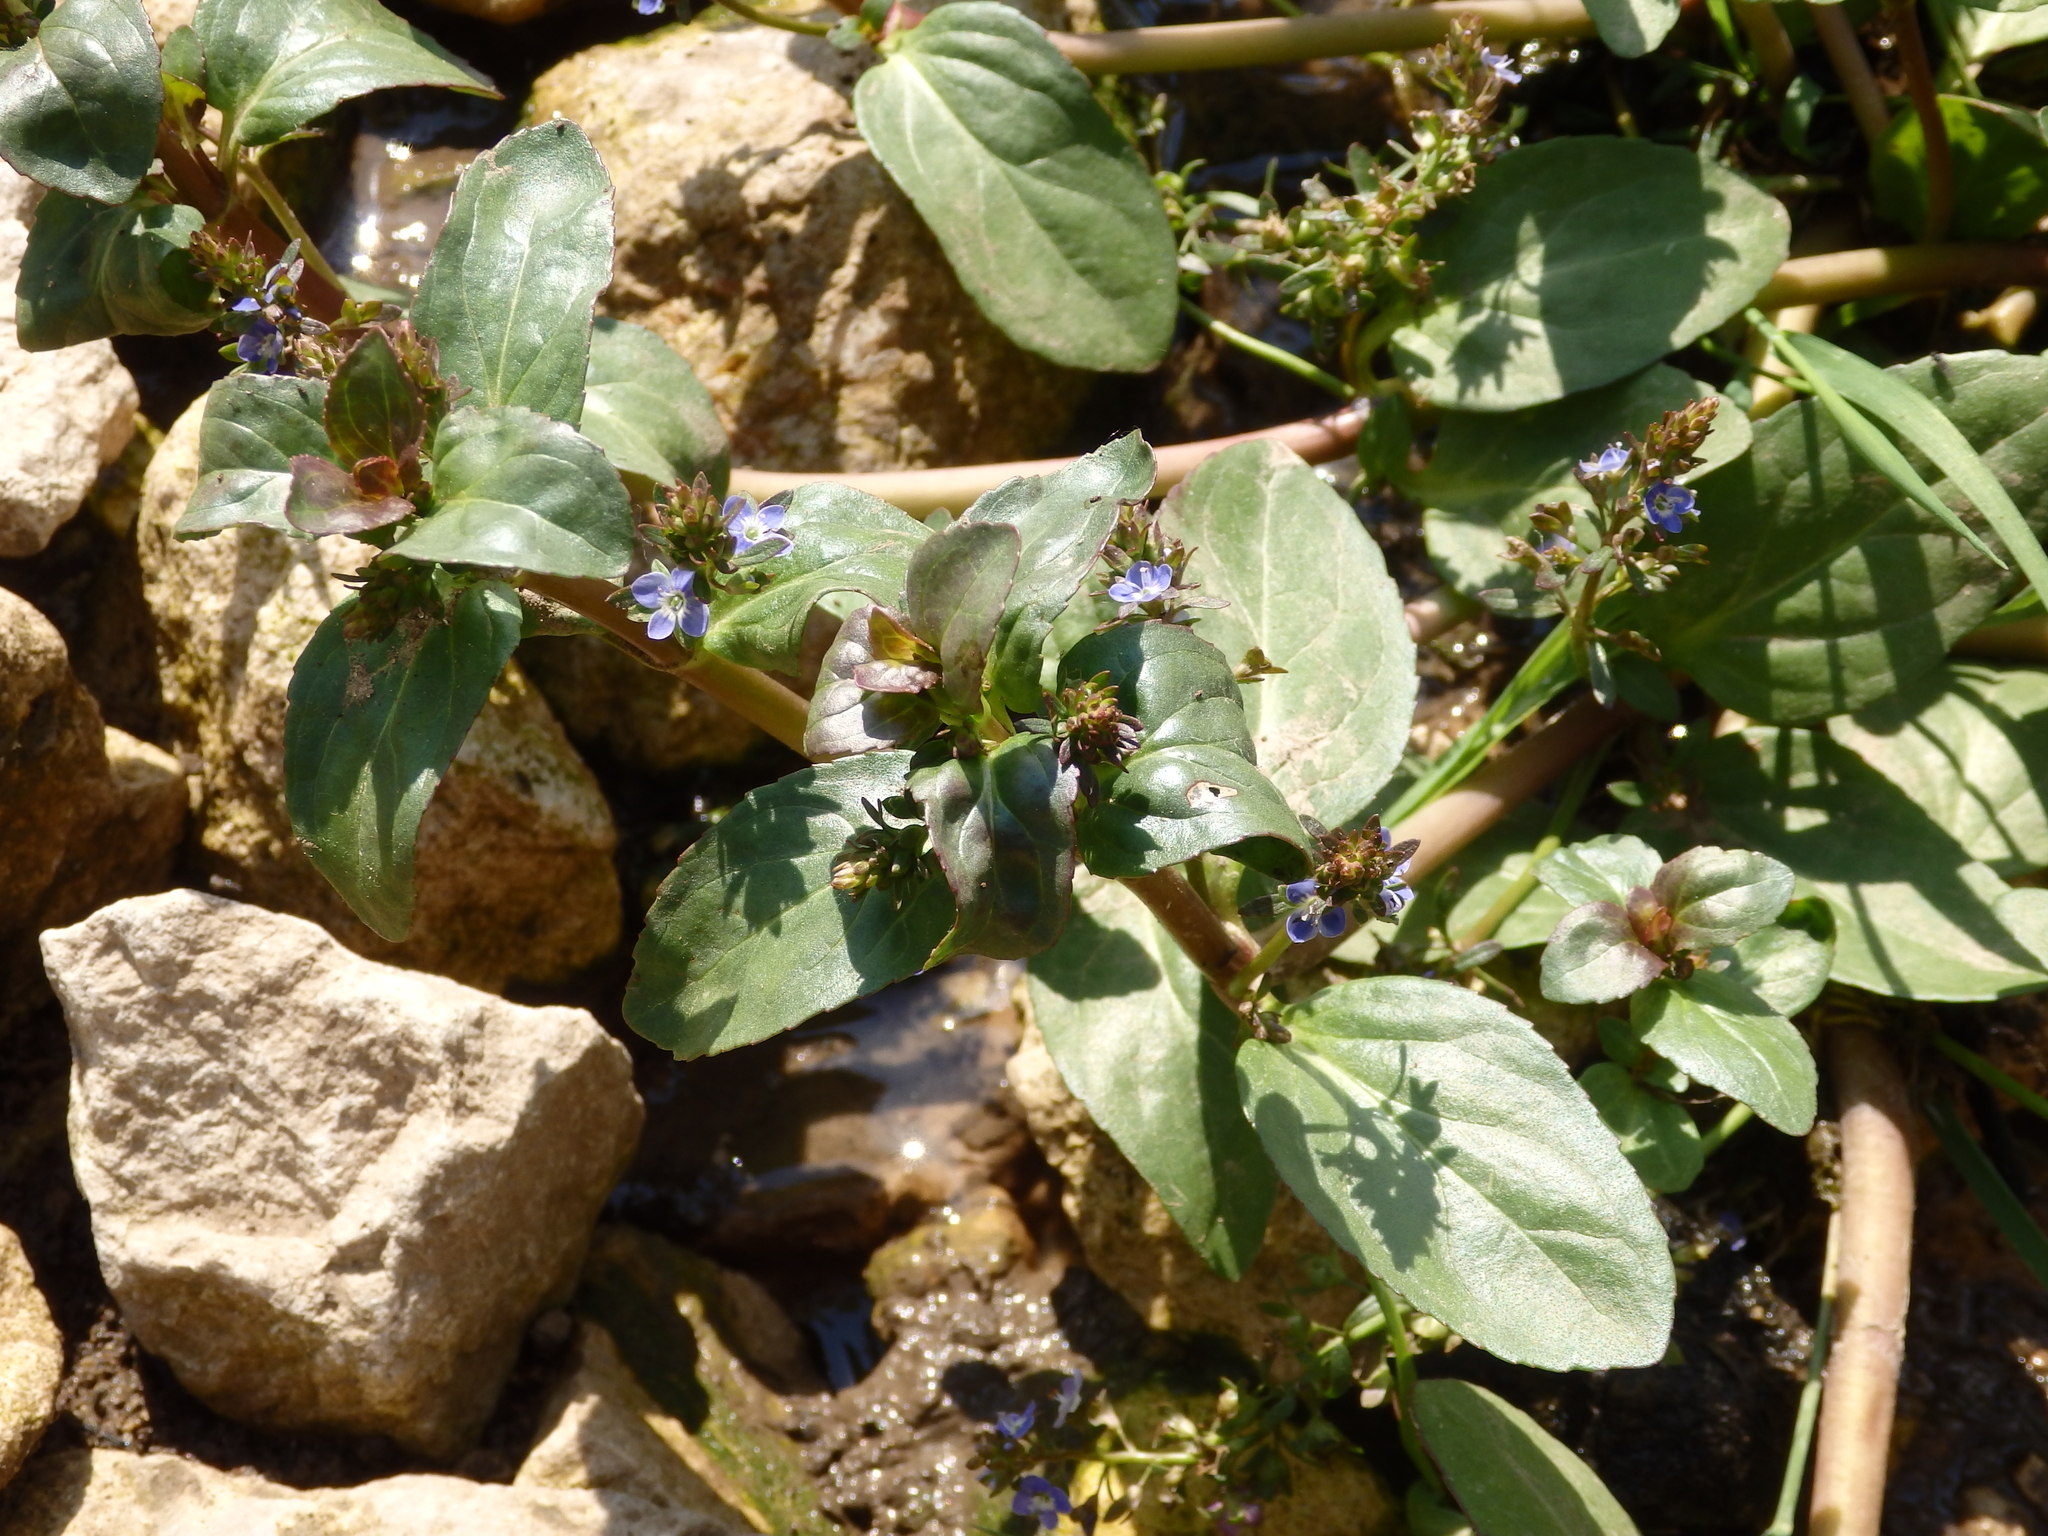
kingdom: Plantae
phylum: Tracheophyta
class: Magnoliopsida
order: Lamiales
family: Plantaginaceae
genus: Veronica
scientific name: Veronica beccabunga
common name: Brooklime
